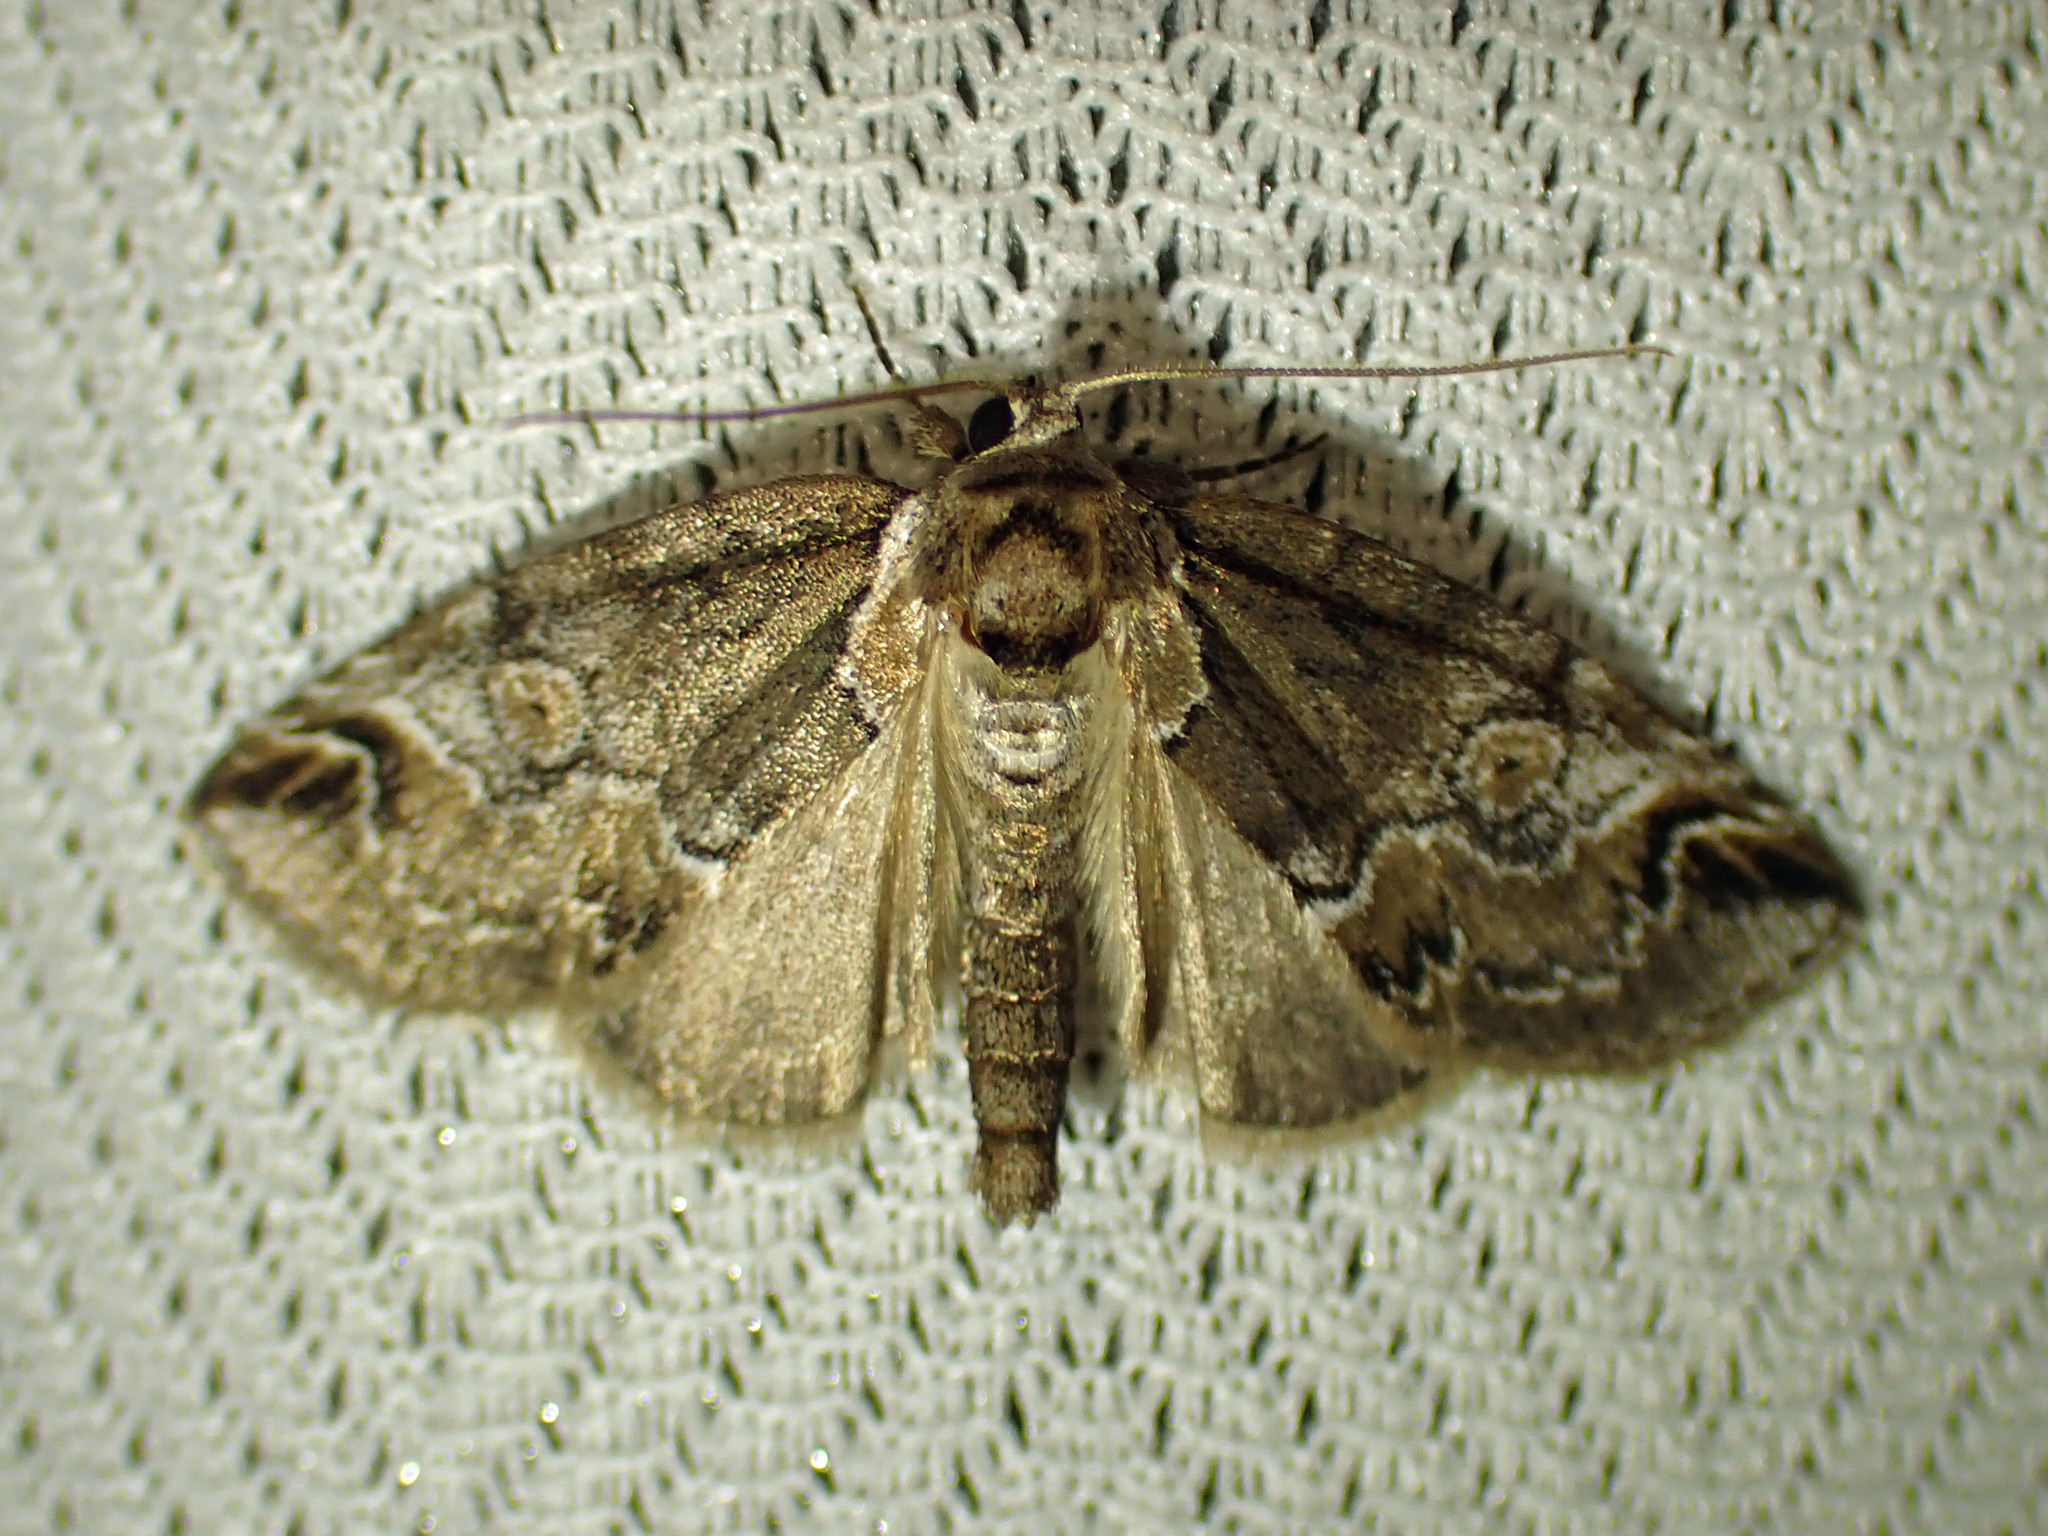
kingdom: Animalia
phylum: Arthropoda
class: Insecta
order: Lepidoptera
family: Nolidae
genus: Baileya
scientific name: Baileya ophthalmica
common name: Eyed baileya moth
